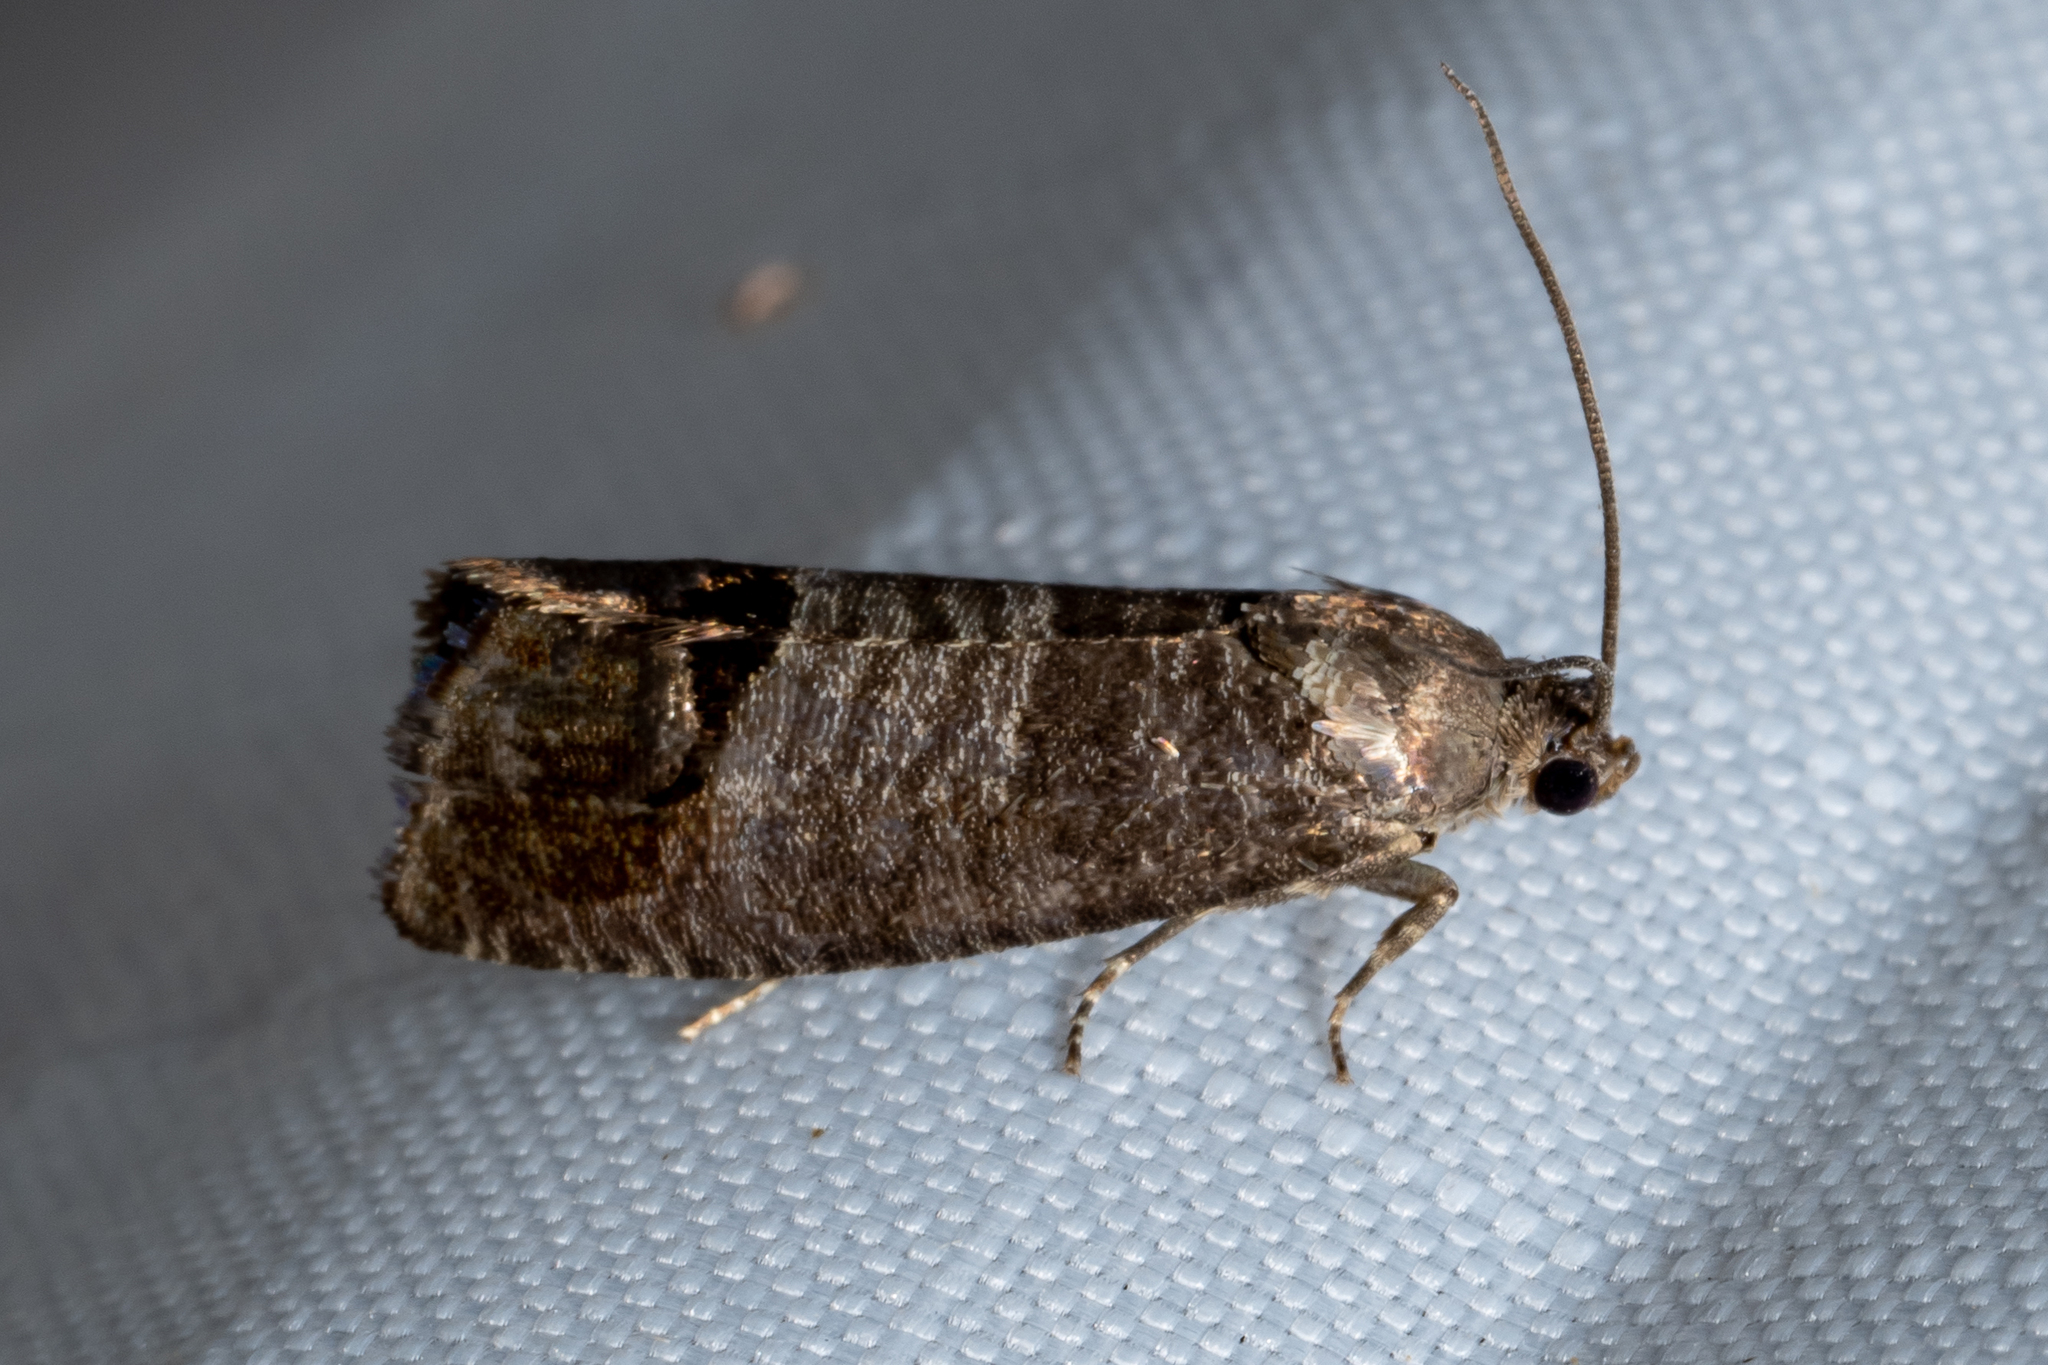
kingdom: Animalia
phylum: Arthropoda
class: Insecta
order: Lepidoptera
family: Tortricidae
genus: Cydia
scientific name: Cydia pomonella
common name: Codling moth
